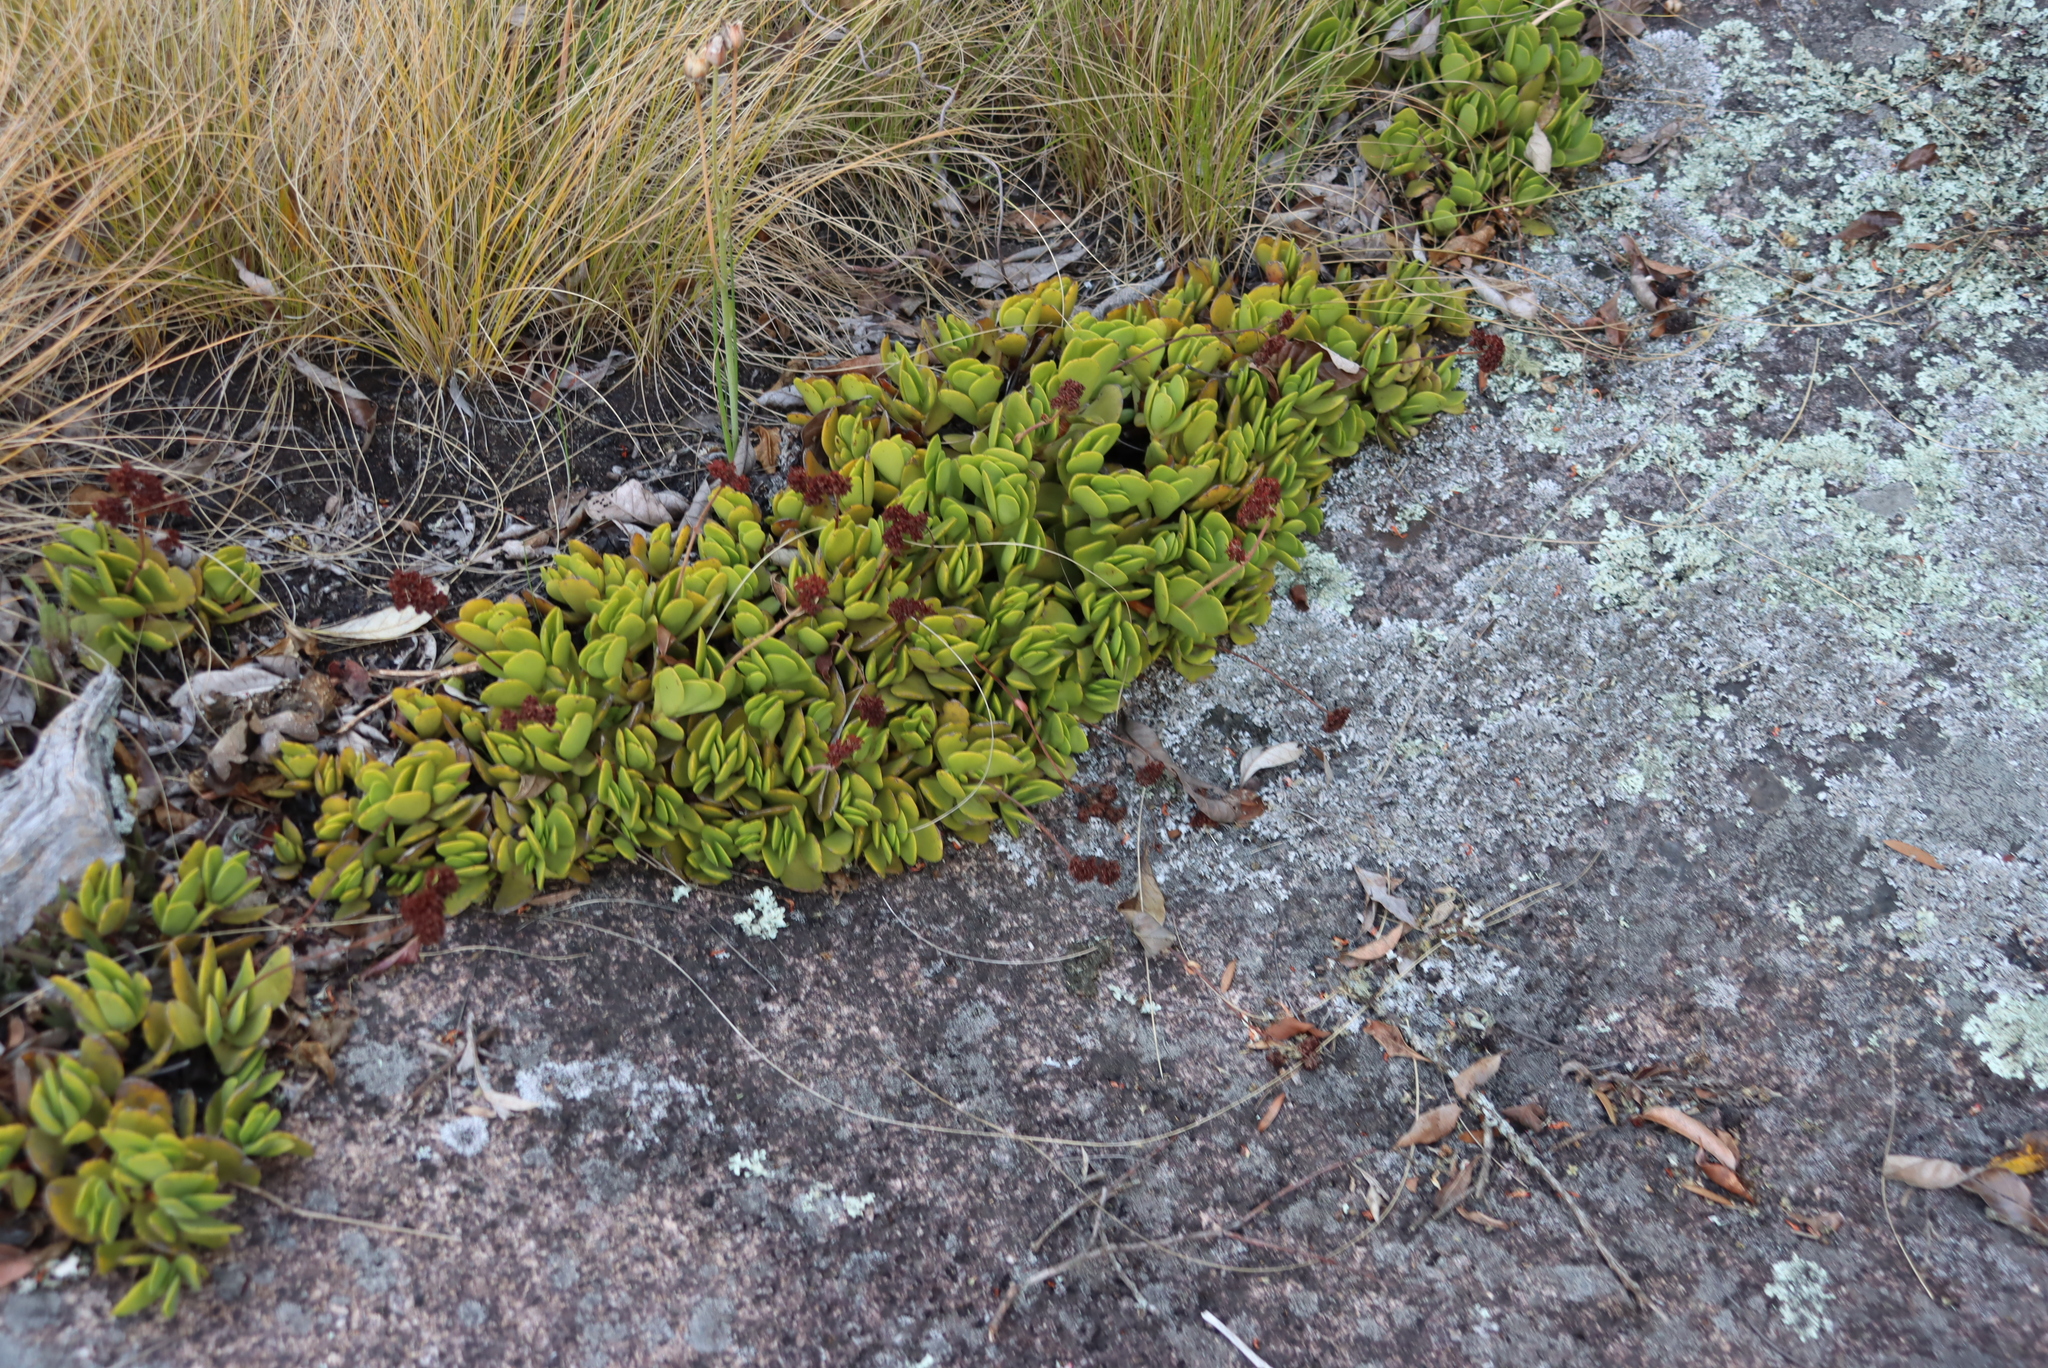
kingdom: Plantae
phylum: Tracheophyta
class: Magnoliopsida
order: Saxifragales
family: Crassulaceae
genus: Crassula
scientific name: Crassula globularioides
